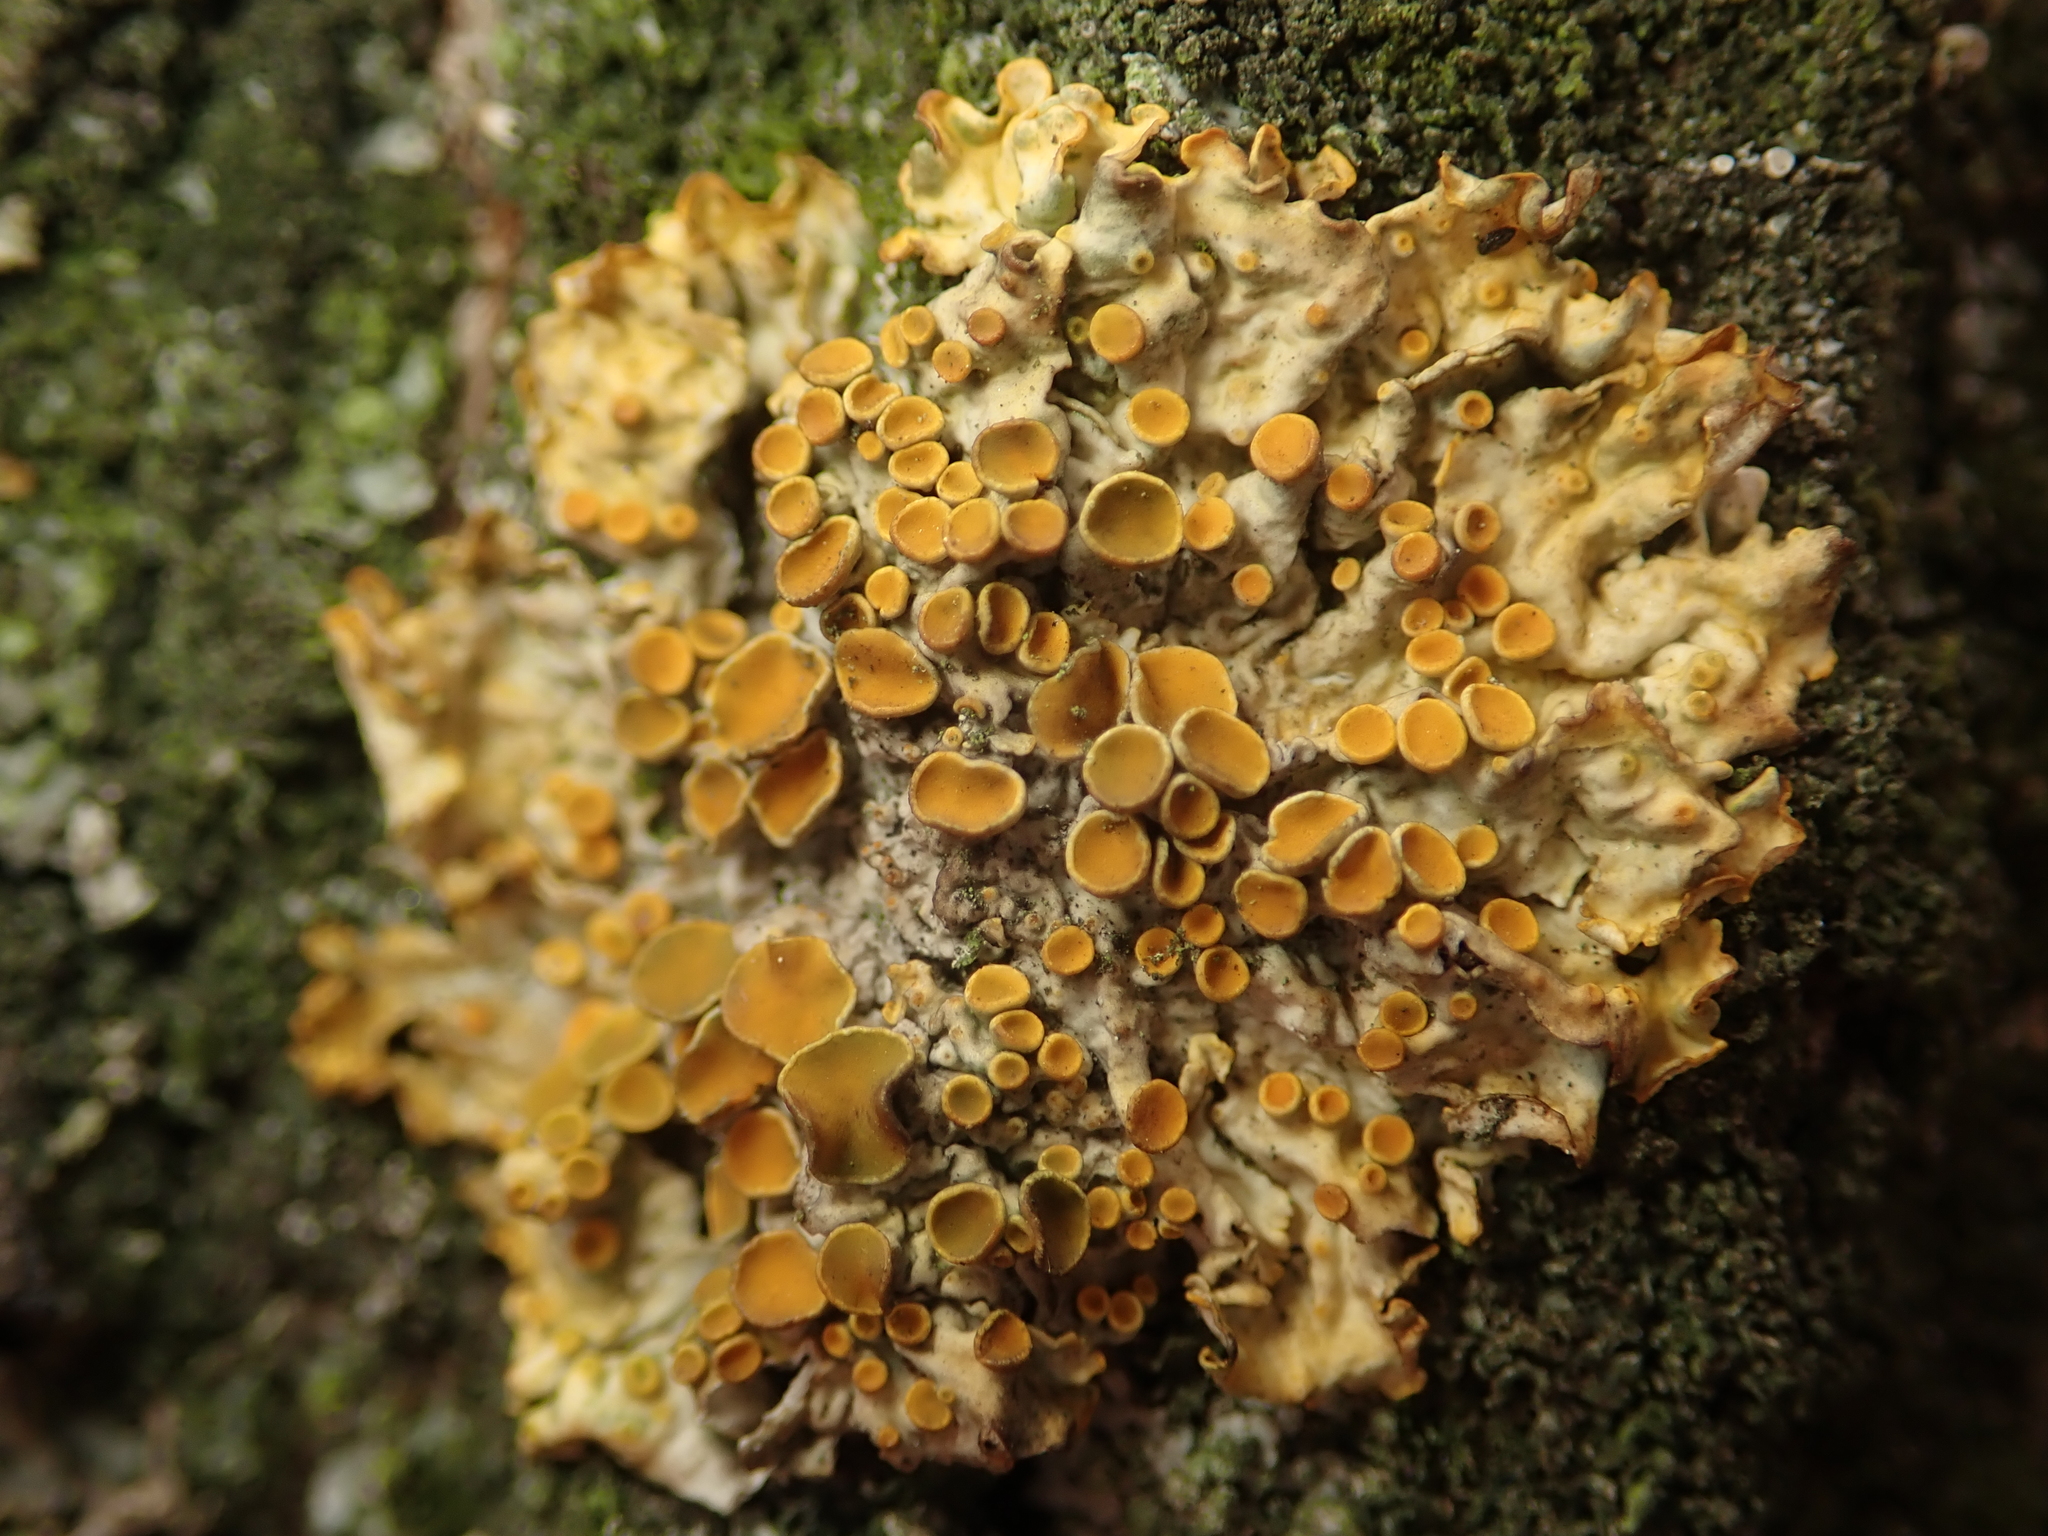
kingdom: Fungi
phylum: Ascomycota
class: Lecanoromycetes
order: Teloschistales
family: Teloschistaceae
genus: Xanthoria
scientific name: Xanthoria parietina
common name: Common orange lichen
